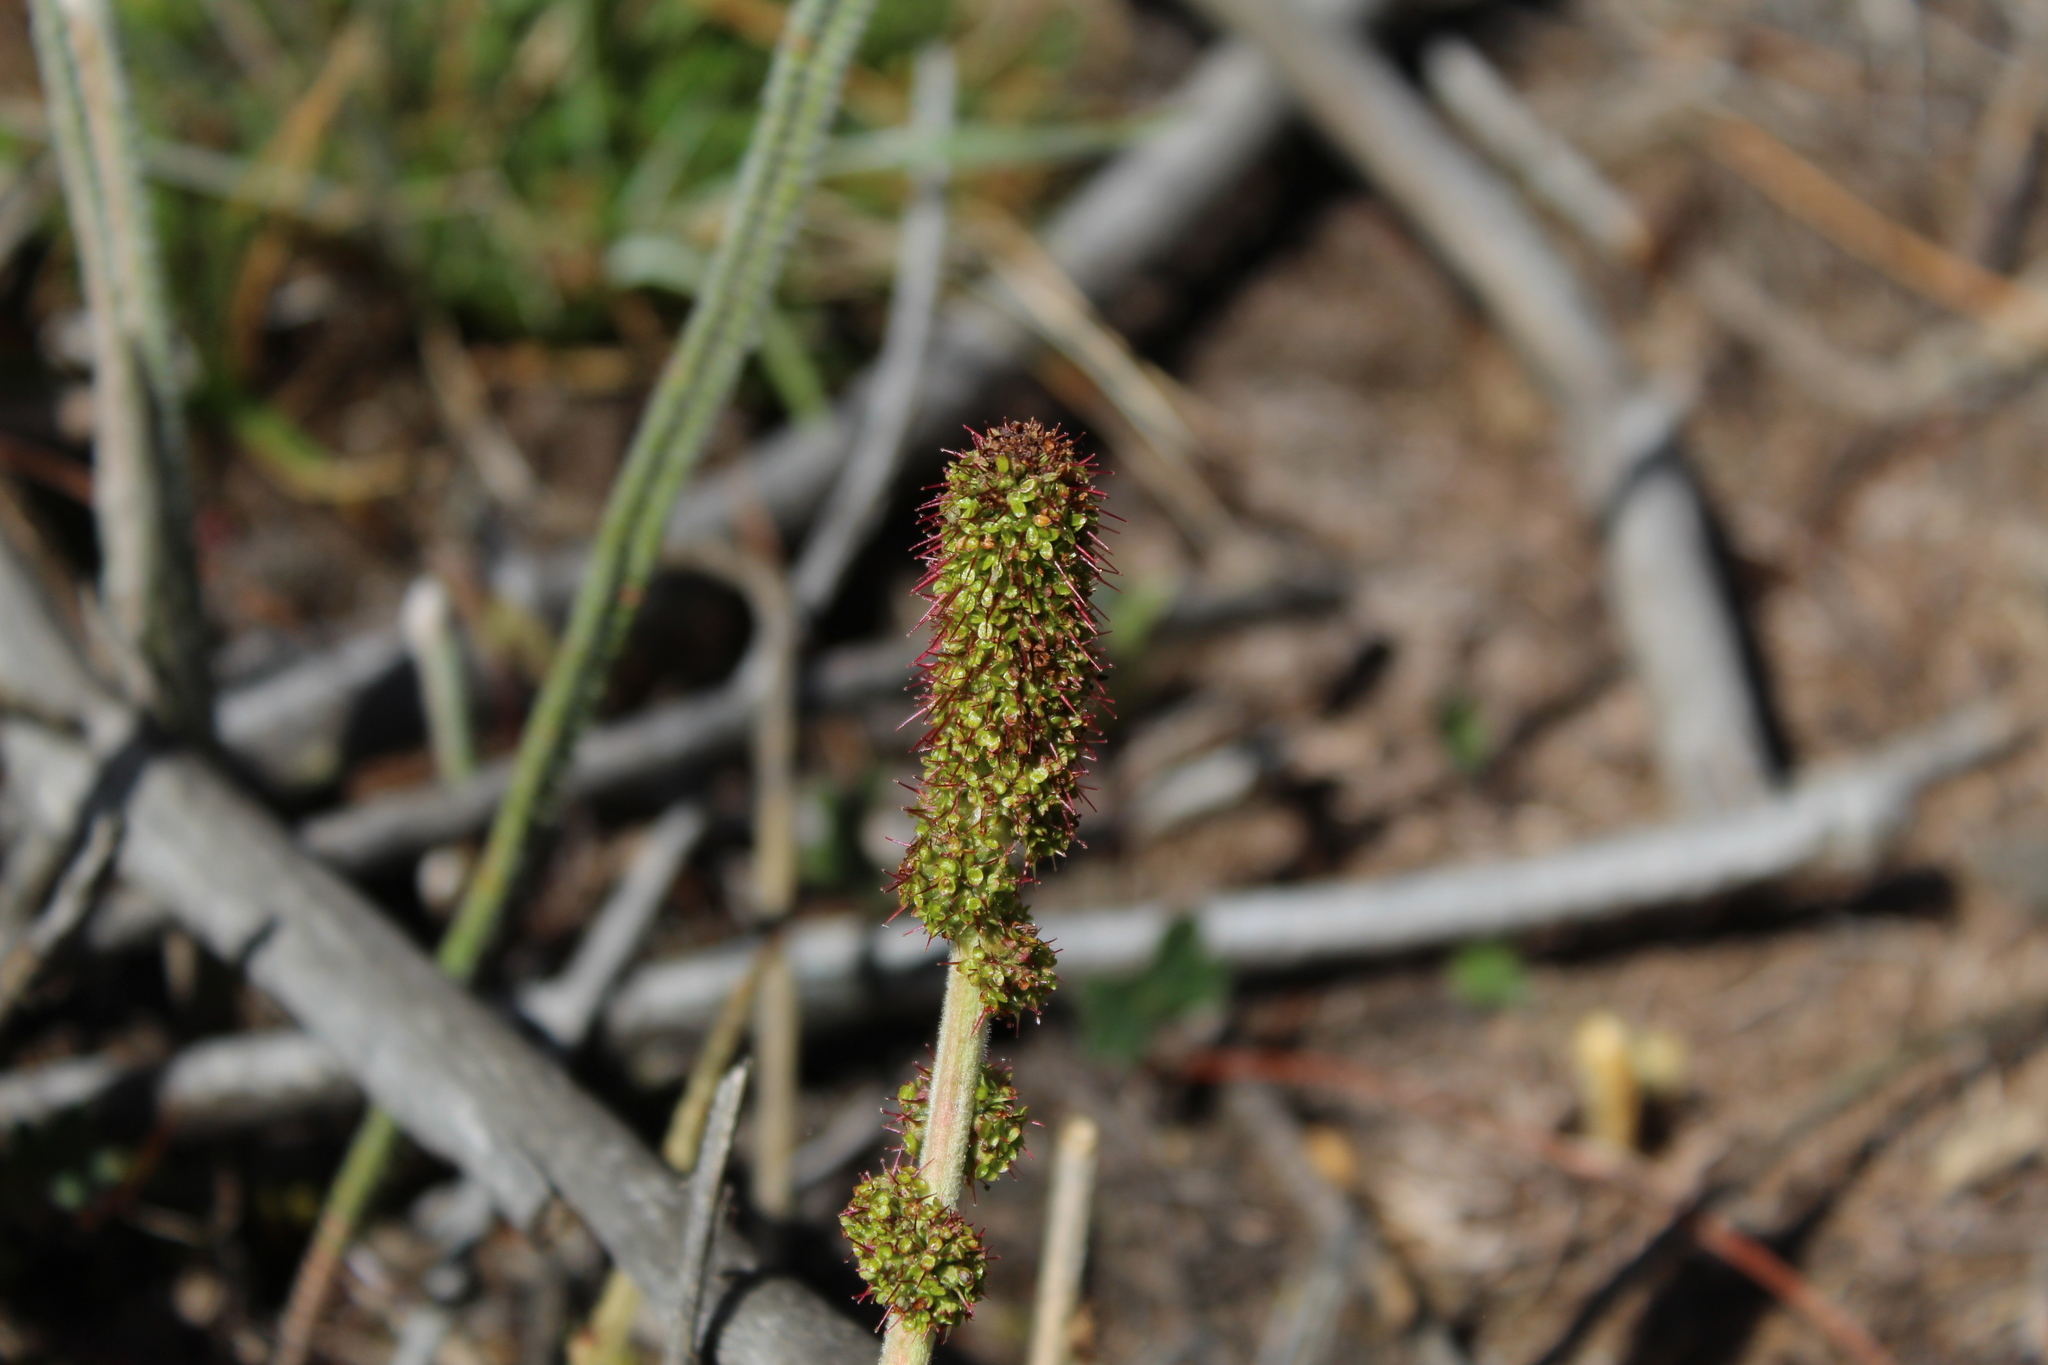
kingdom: Plantae
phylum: Tracheophyta
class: Magnoliopsida
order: Rosales
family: Rosaceae
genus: Acaena
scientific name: Acaena cylindristachya
